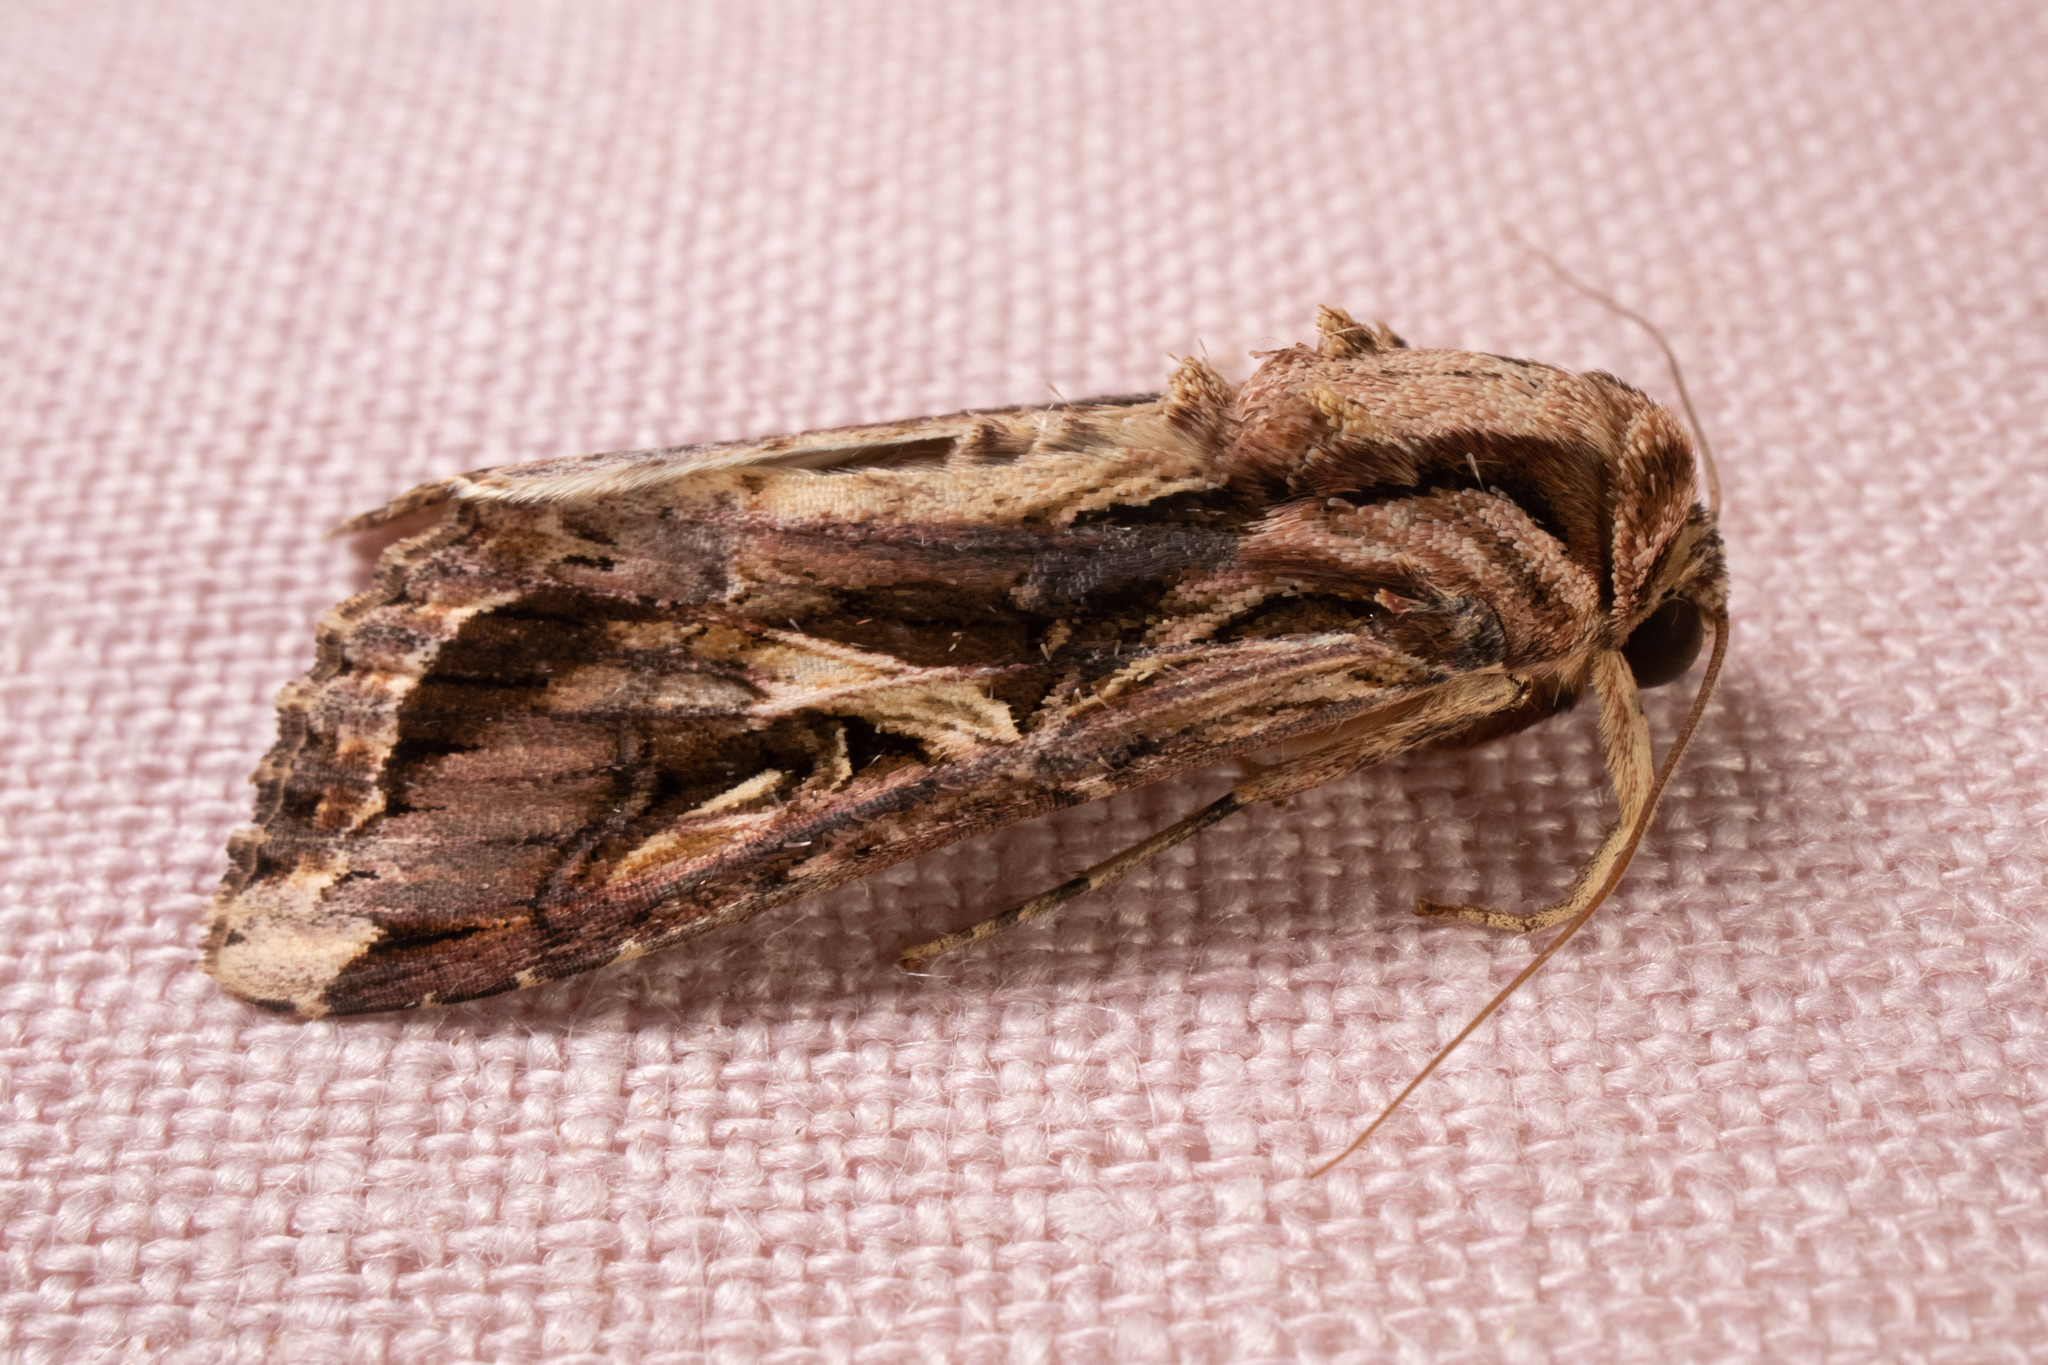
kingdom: Animalia
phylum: Arthropoda
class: Insecta
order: Lepidoptera
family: Noctuidae
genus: Spodoptera
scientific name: Spodoptera dolichos
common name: Sweetpotato armyworm
